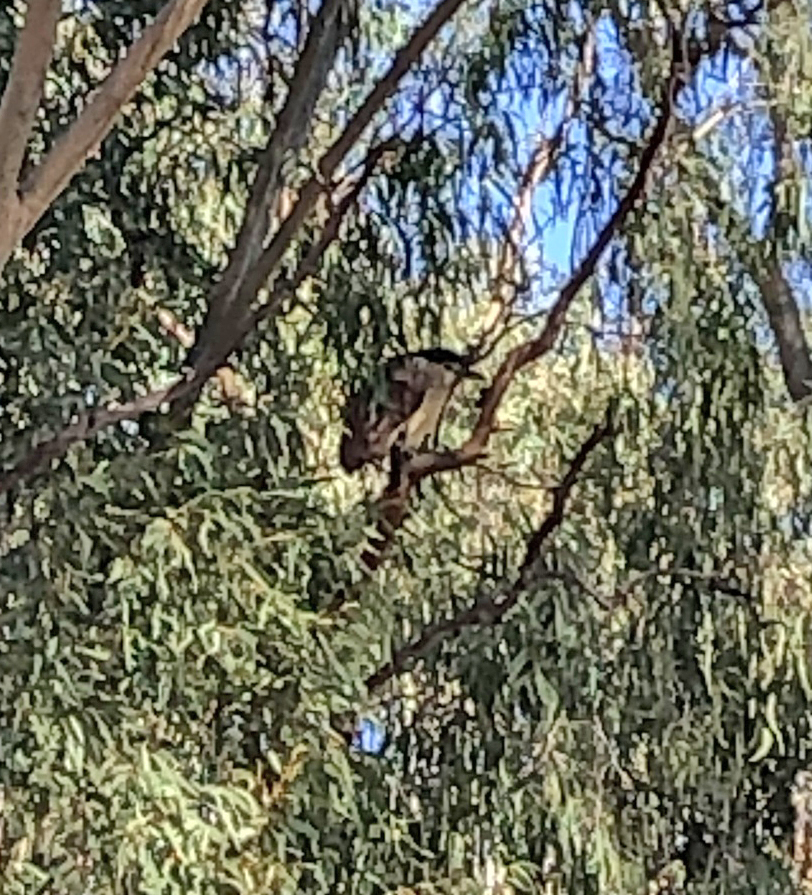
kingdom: Animalia
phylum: Chordata
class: Aves
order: Pelecaniformes
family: Ardeidae
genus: Nycticorax
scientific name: Nycticorax caledonicus
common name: Rufous night-heron
